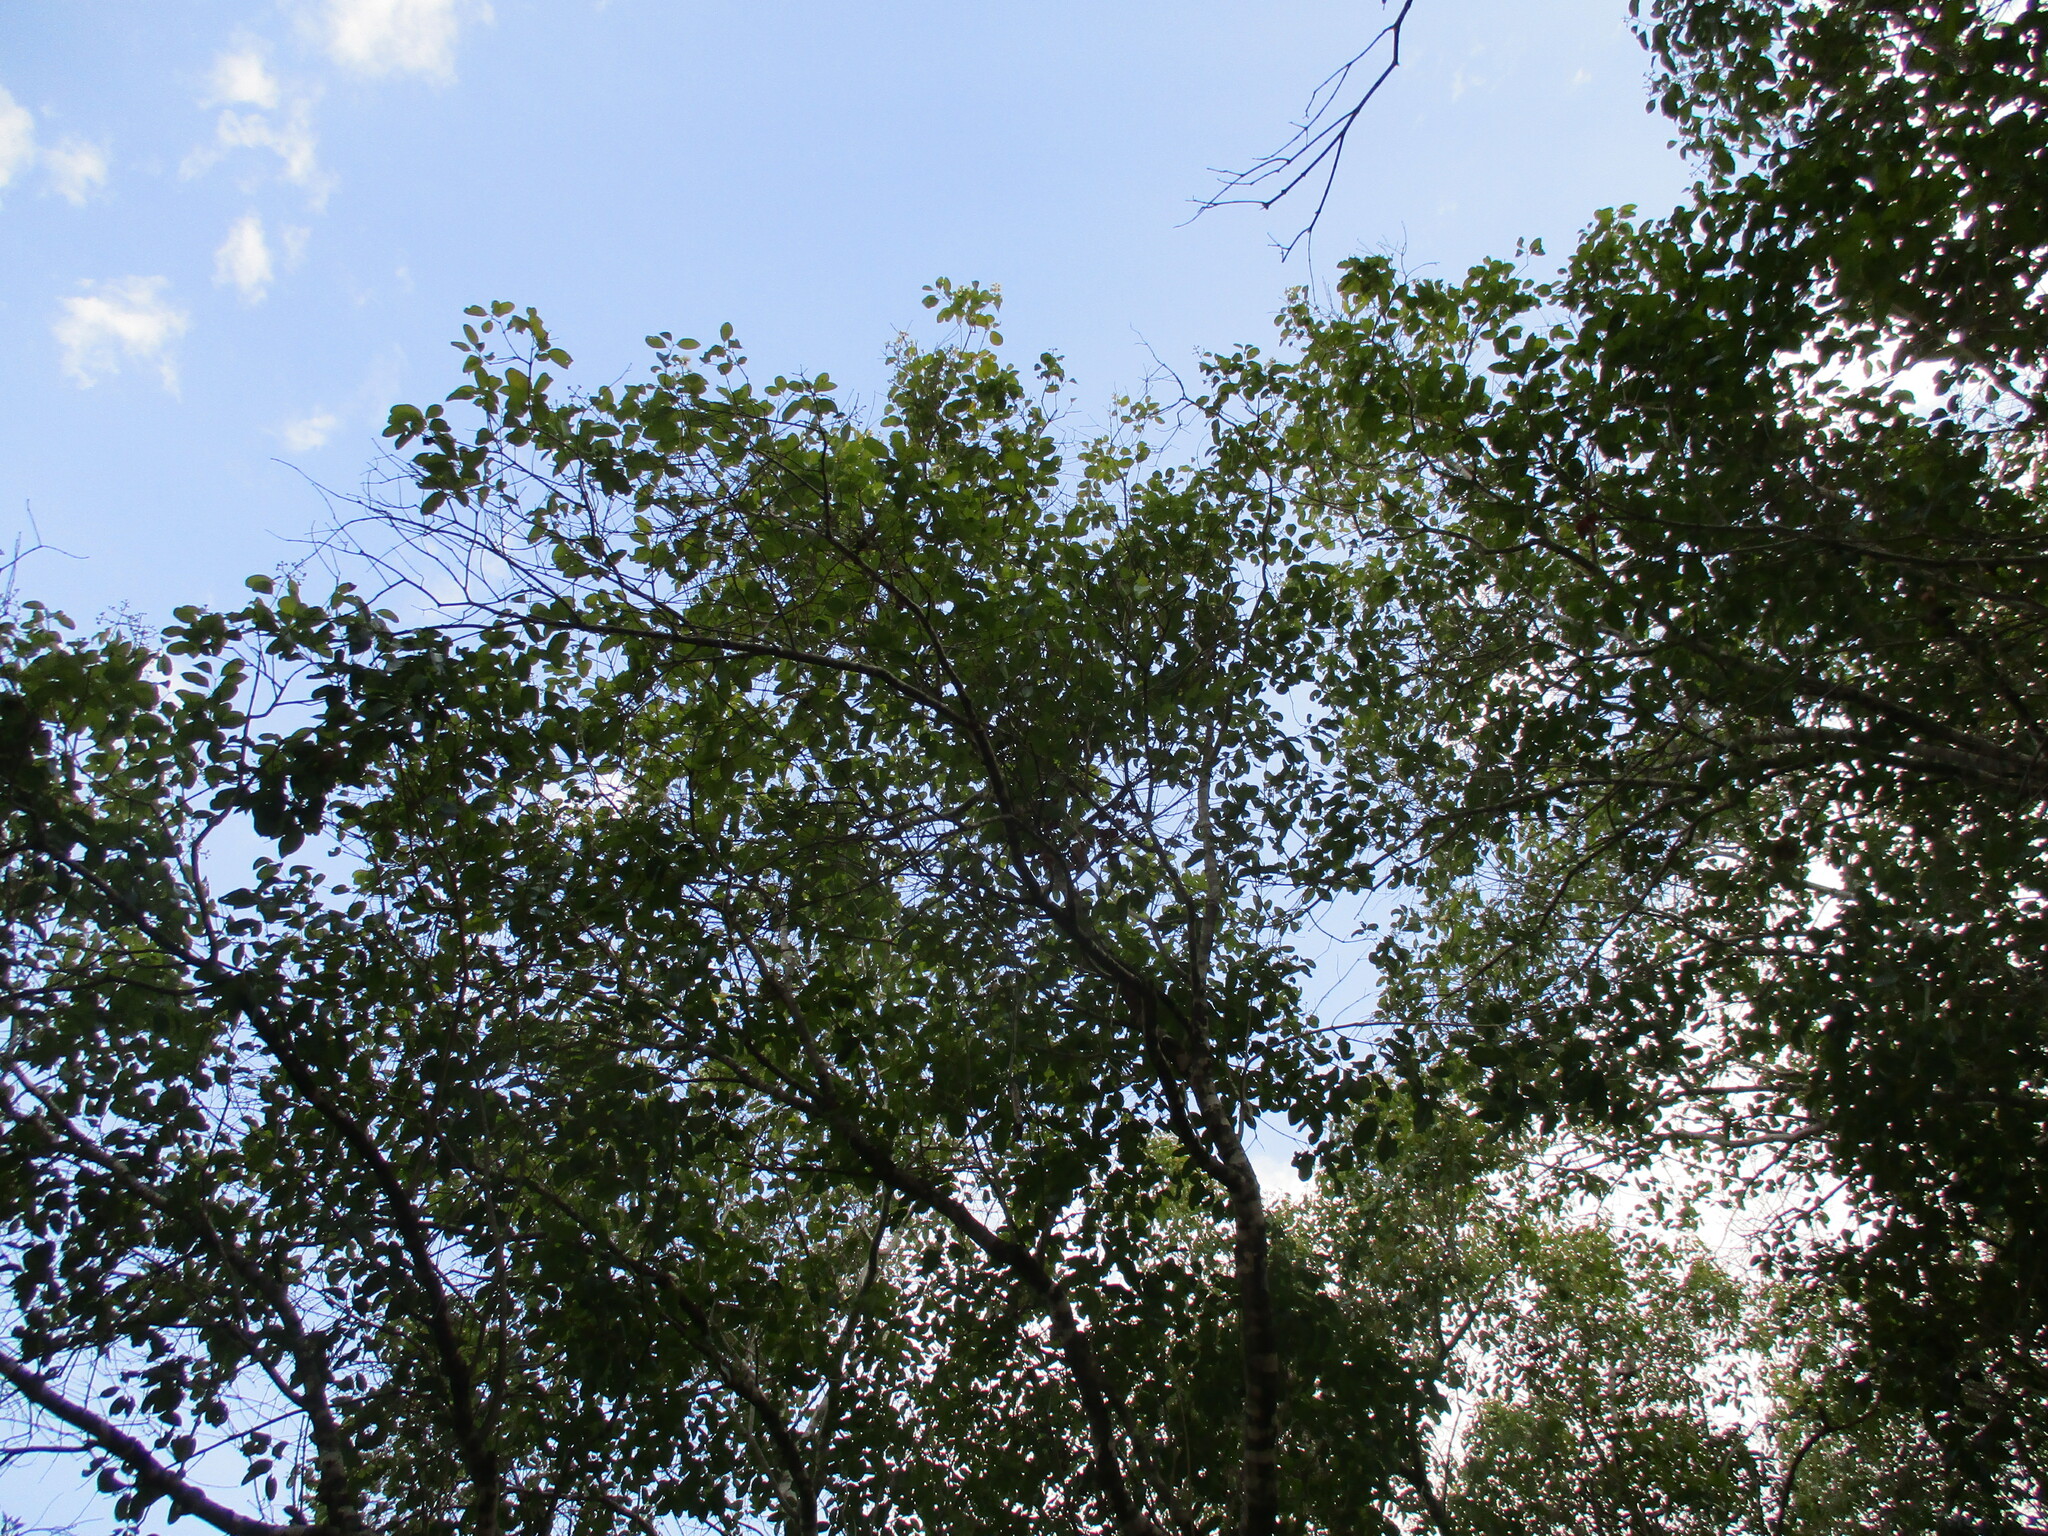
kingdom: Plantae
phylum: Tracheophyta
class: Magnoliopsida
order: Myrtales
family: Myrtaceae
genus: Syzygium
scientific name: Syzygium guineense
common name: Water-pear
